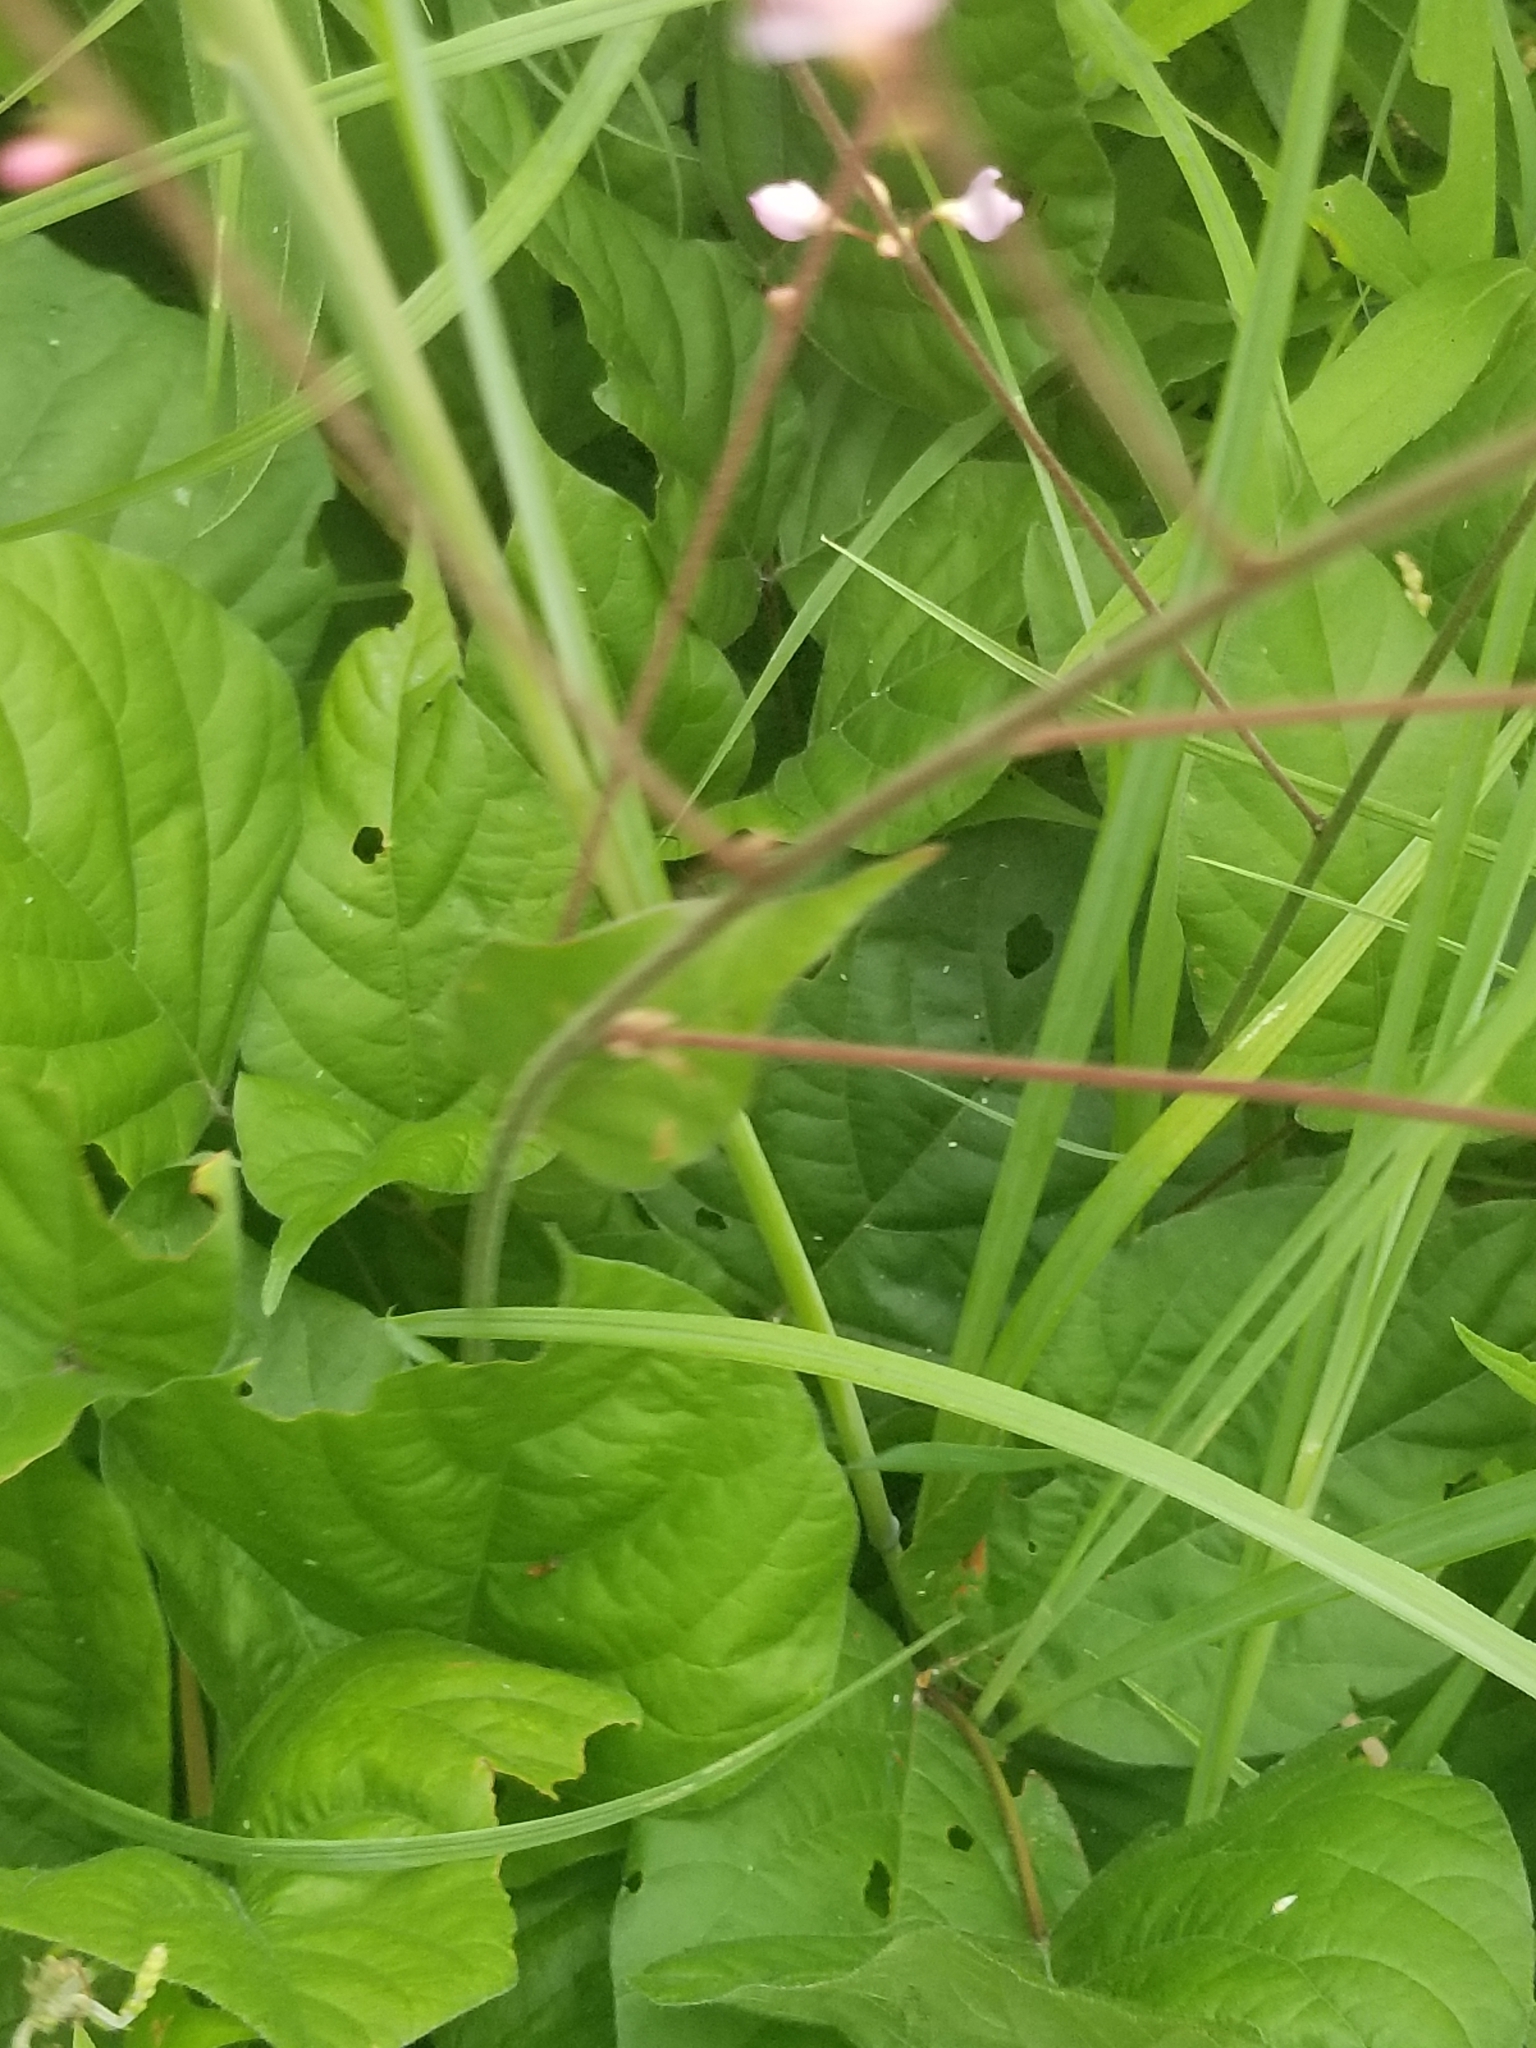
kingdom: Plantae
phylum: Tracheophyta
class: Magnoliopsida
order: Fabales
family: Fabaceae
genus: Hylodesmum
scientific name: Hylodesmum glutinosum
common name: Clustered-leaved tick-trefoil
